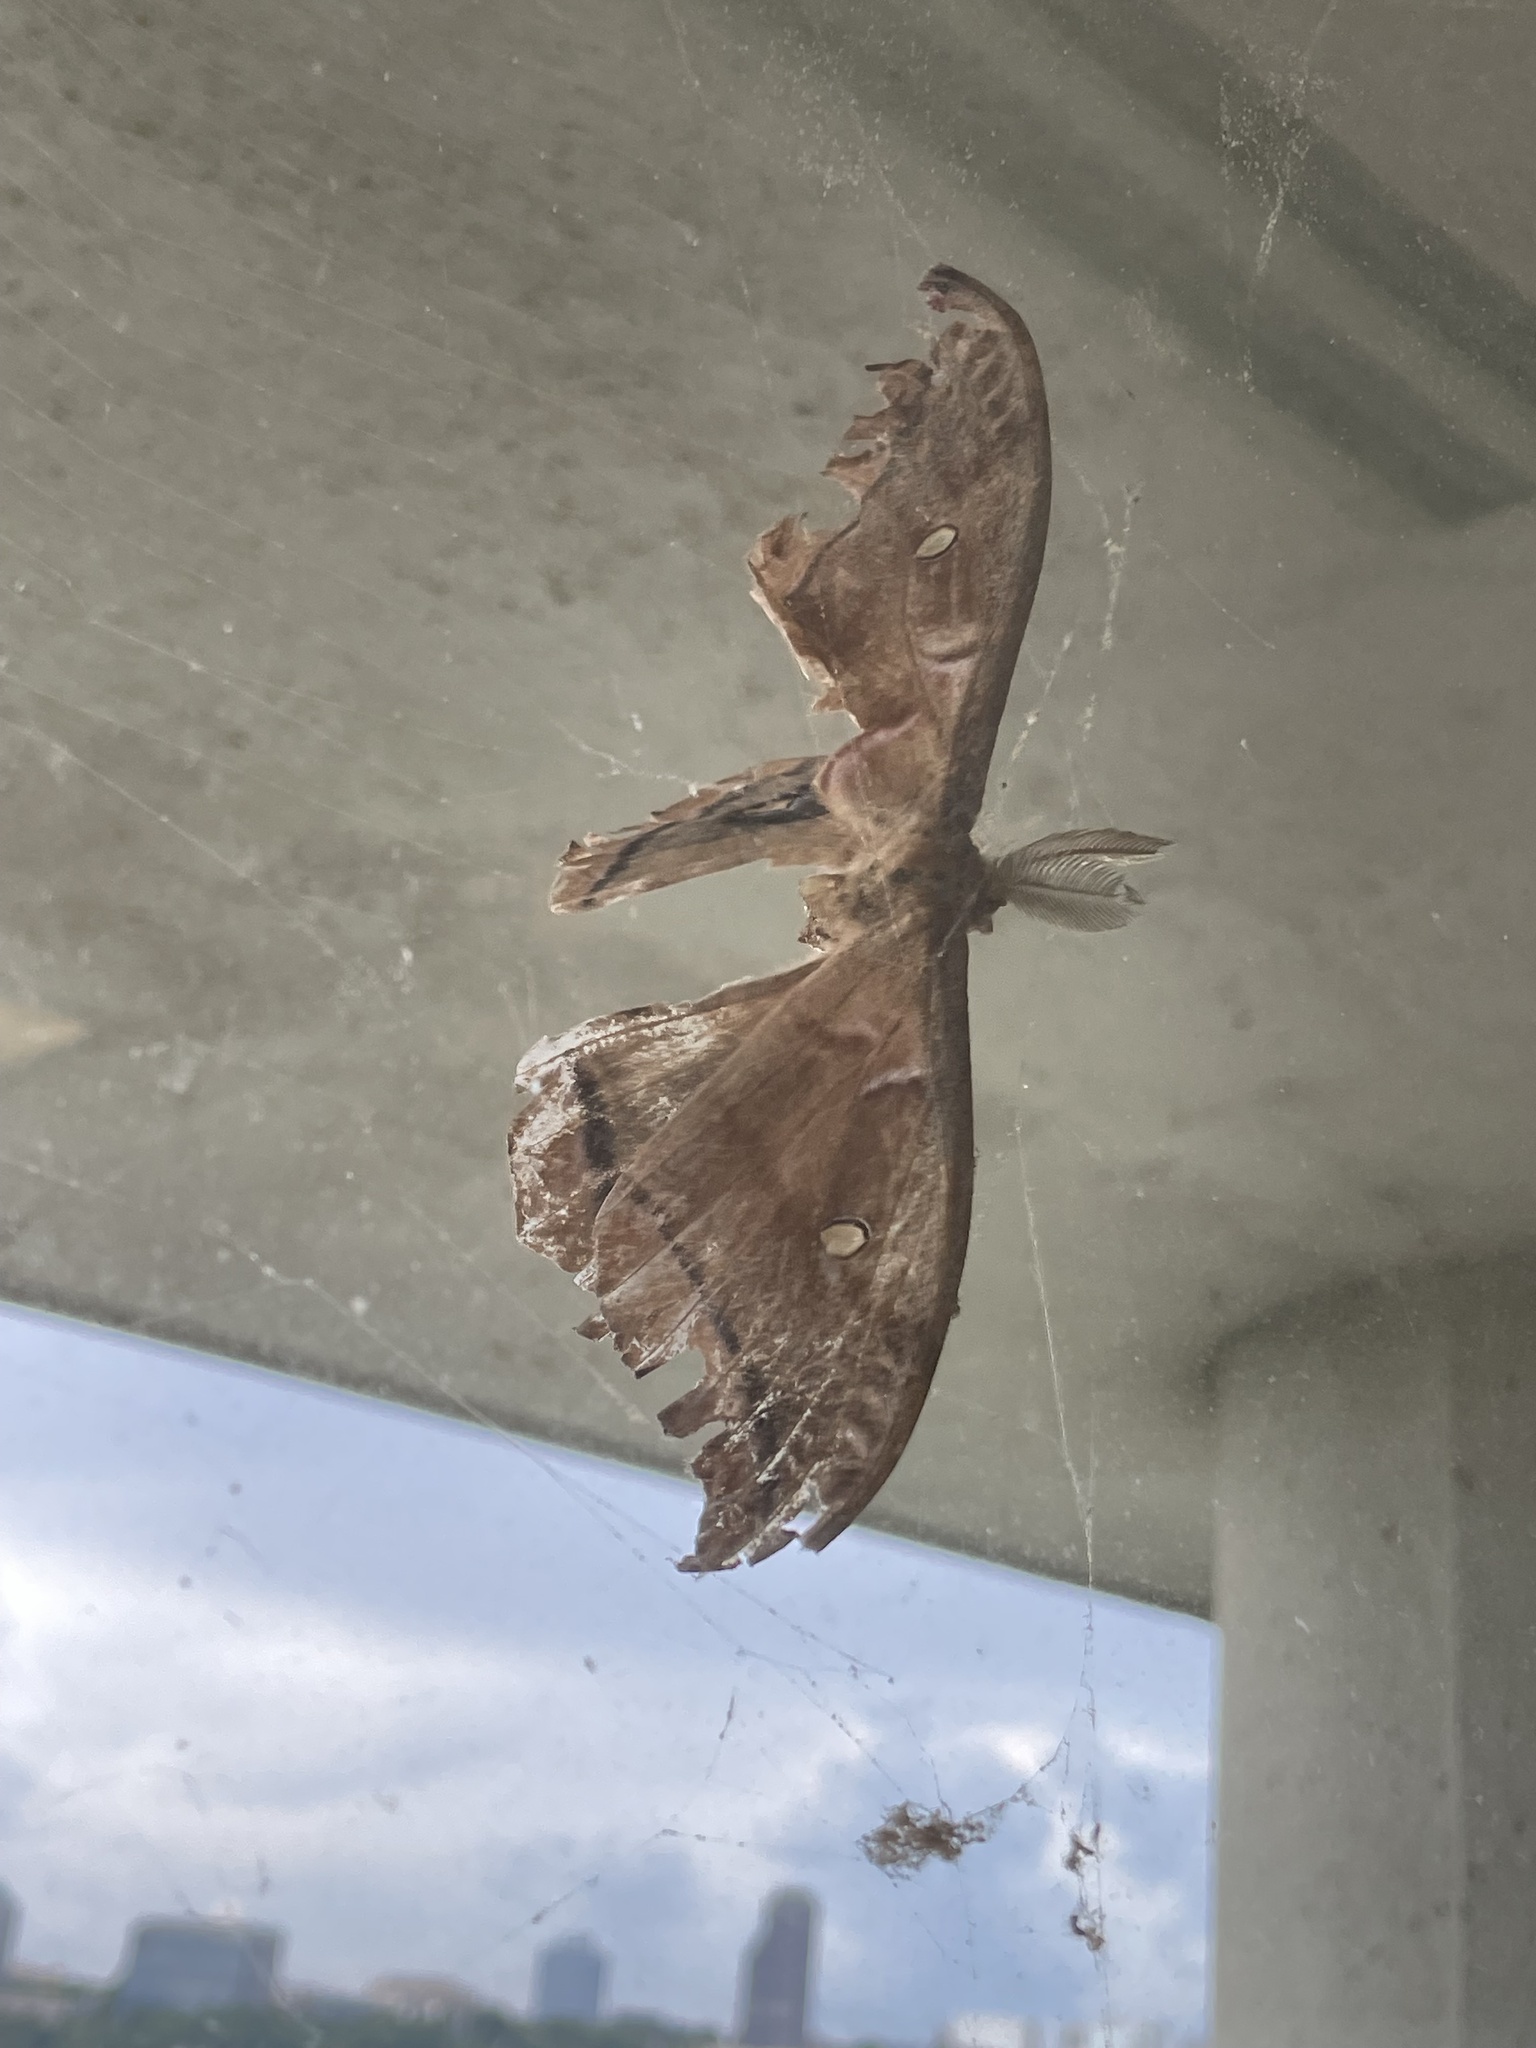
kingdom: Animalia
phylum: Arthropoda
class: Insecta
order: Lepidoptera
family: Saturniidae
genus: Antheraea
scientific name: Antheraea polyphemus
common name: Polyphemus moth
